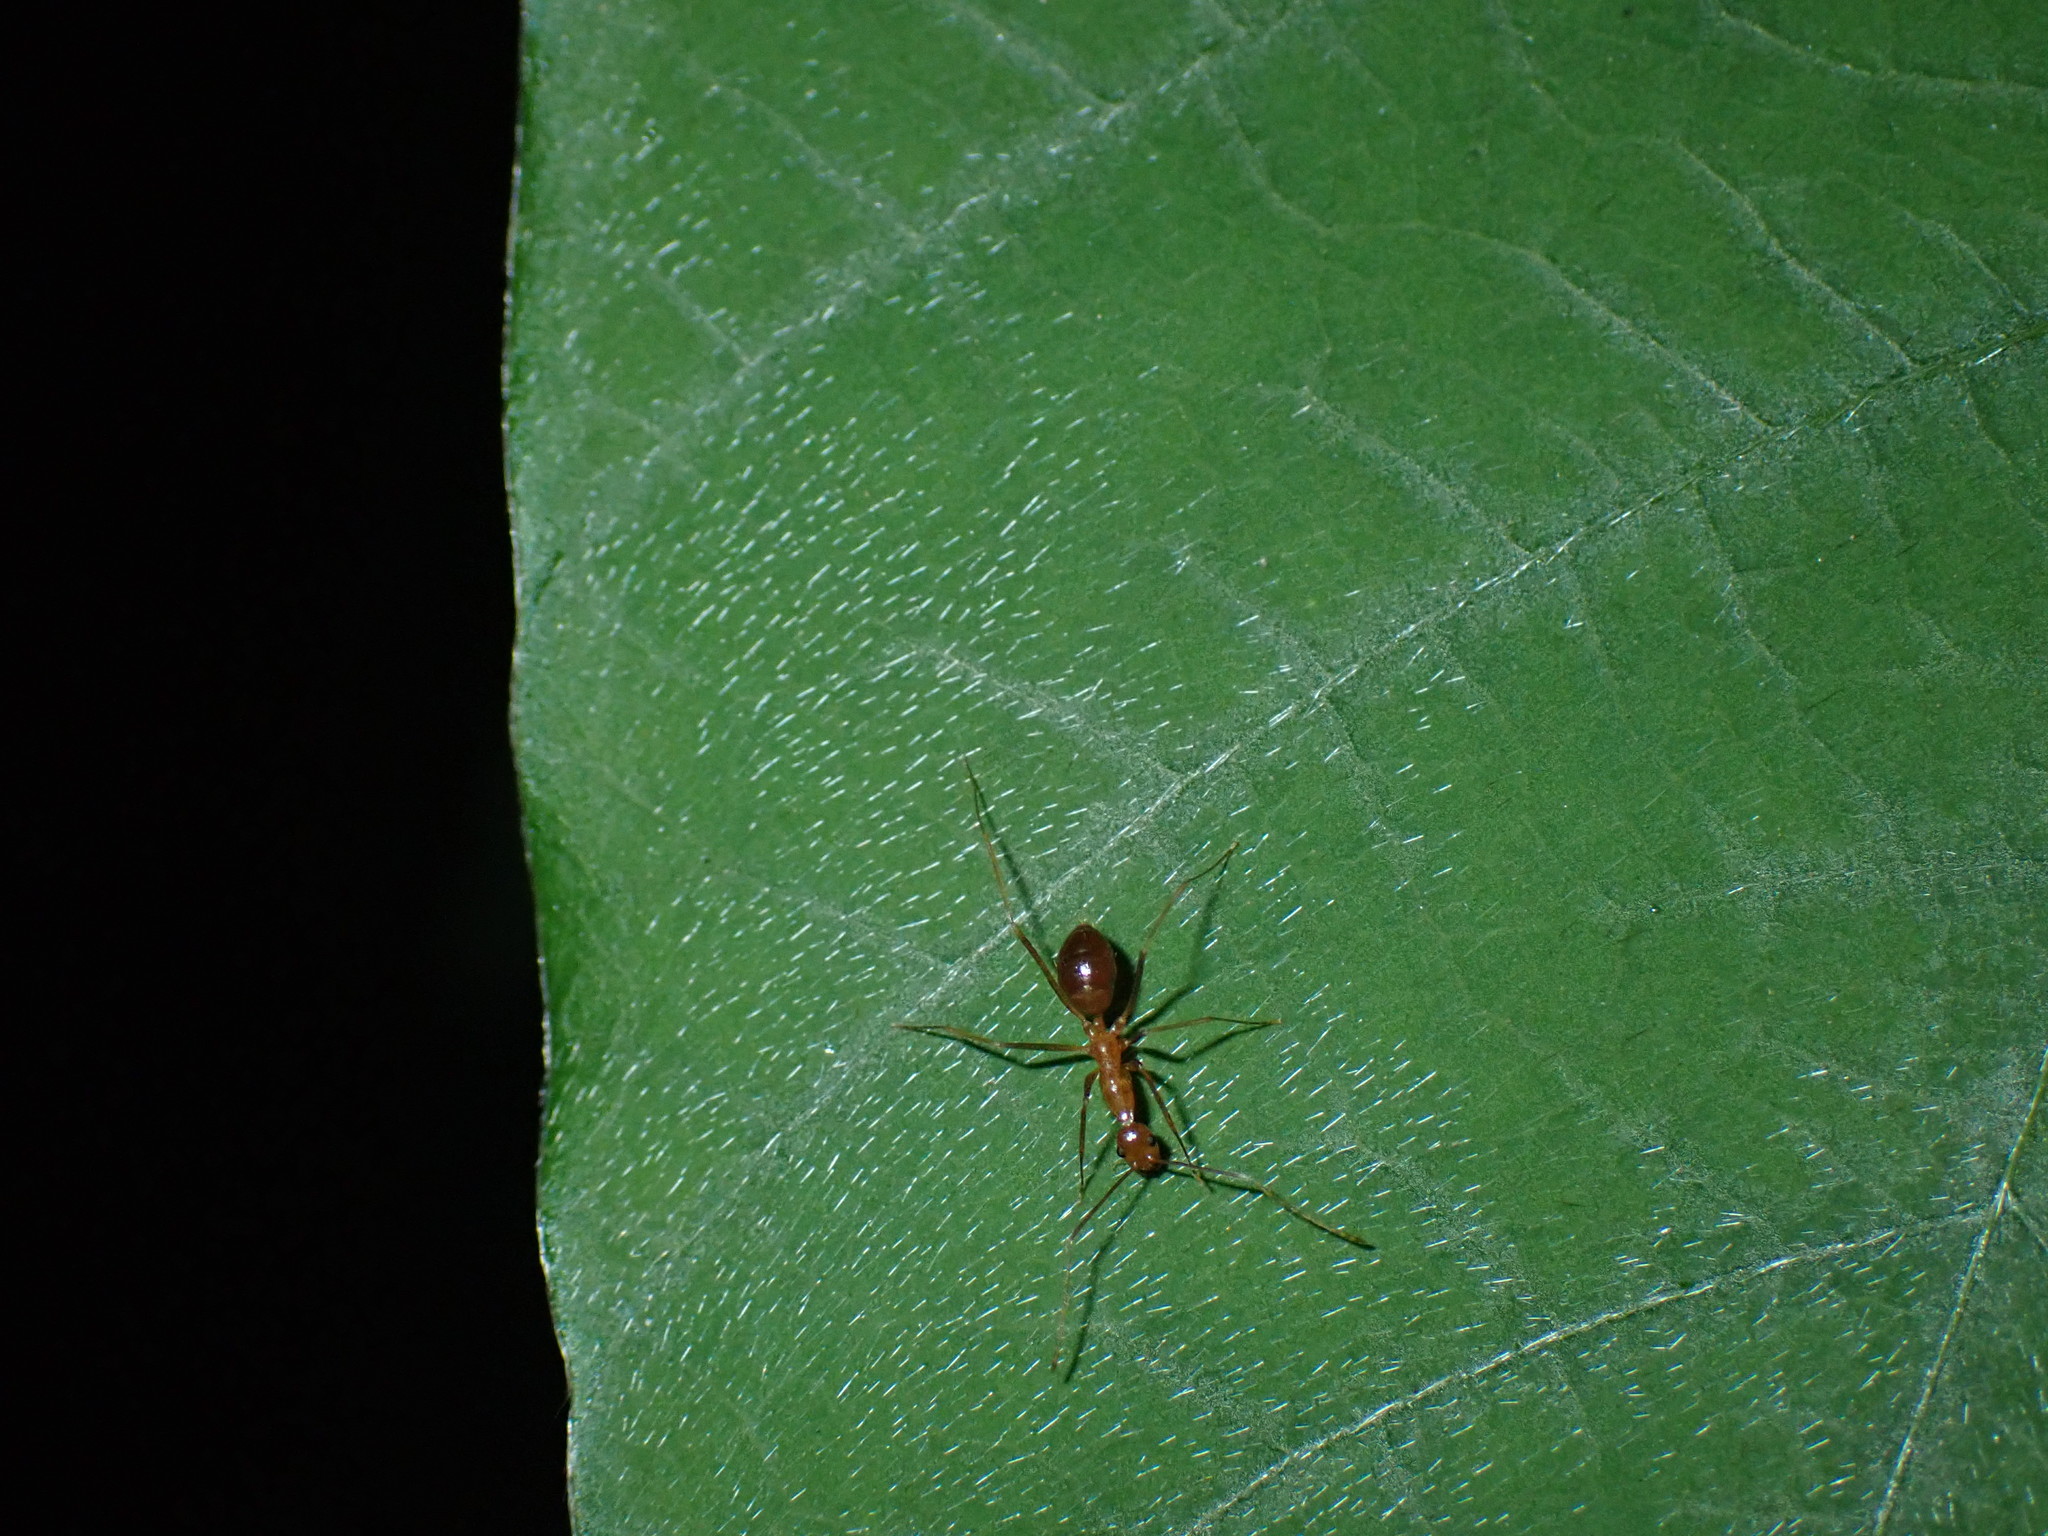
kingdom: Animalia
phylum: Arthropoda
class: Insecta
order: Hymenoptera
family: Formicidae
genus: Anoplolepis
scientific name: Anoplolepis gracilipes
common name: Ant
